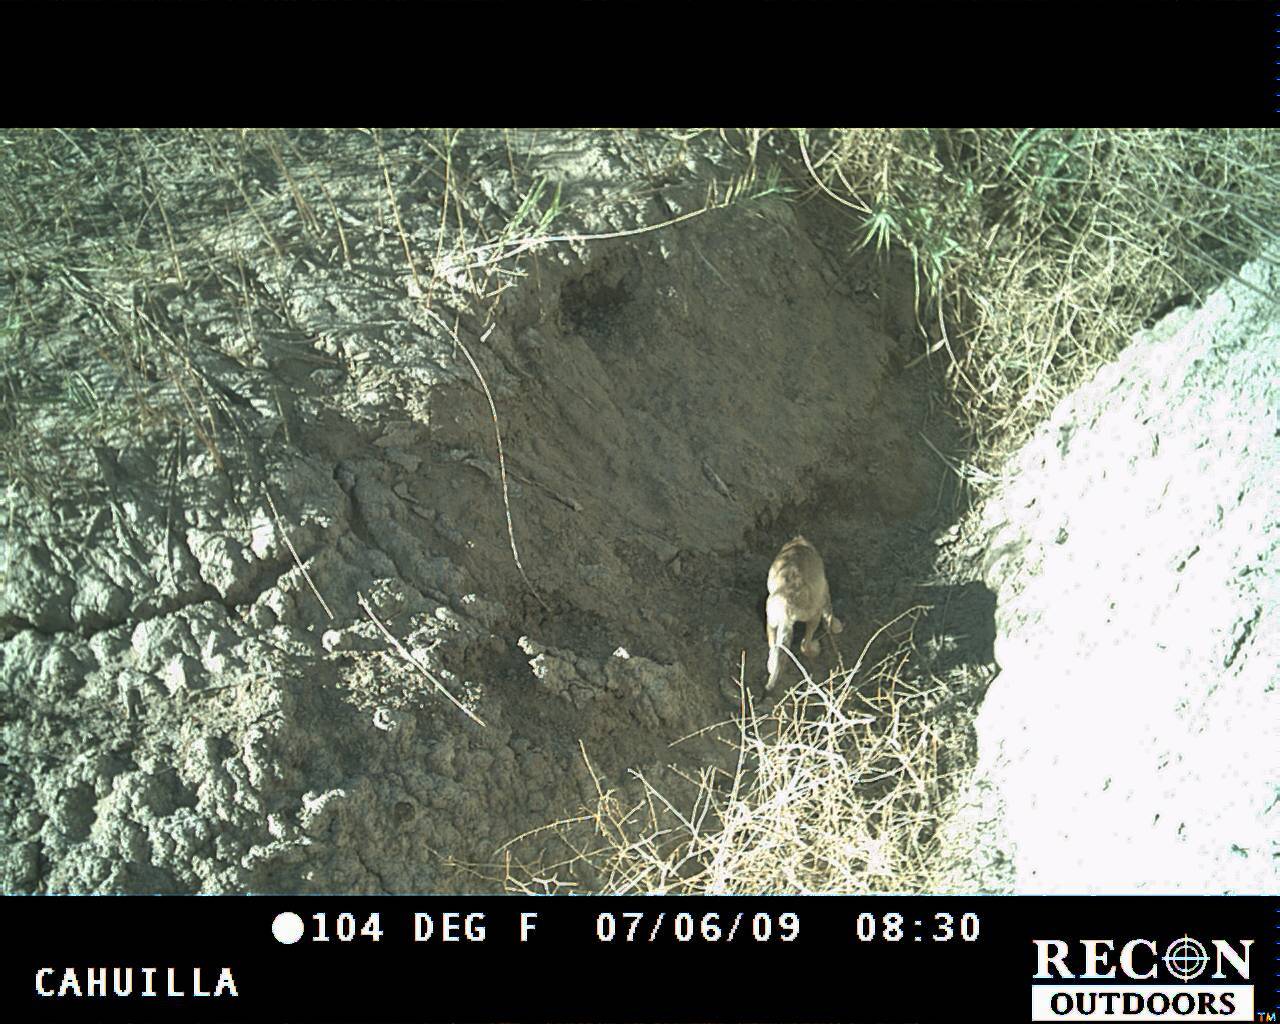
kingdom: Animalia
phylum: Chordata
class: Mammalia
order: Carnivora
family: Canidae
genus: Canis
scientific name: Canis latrans
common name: Coyote
